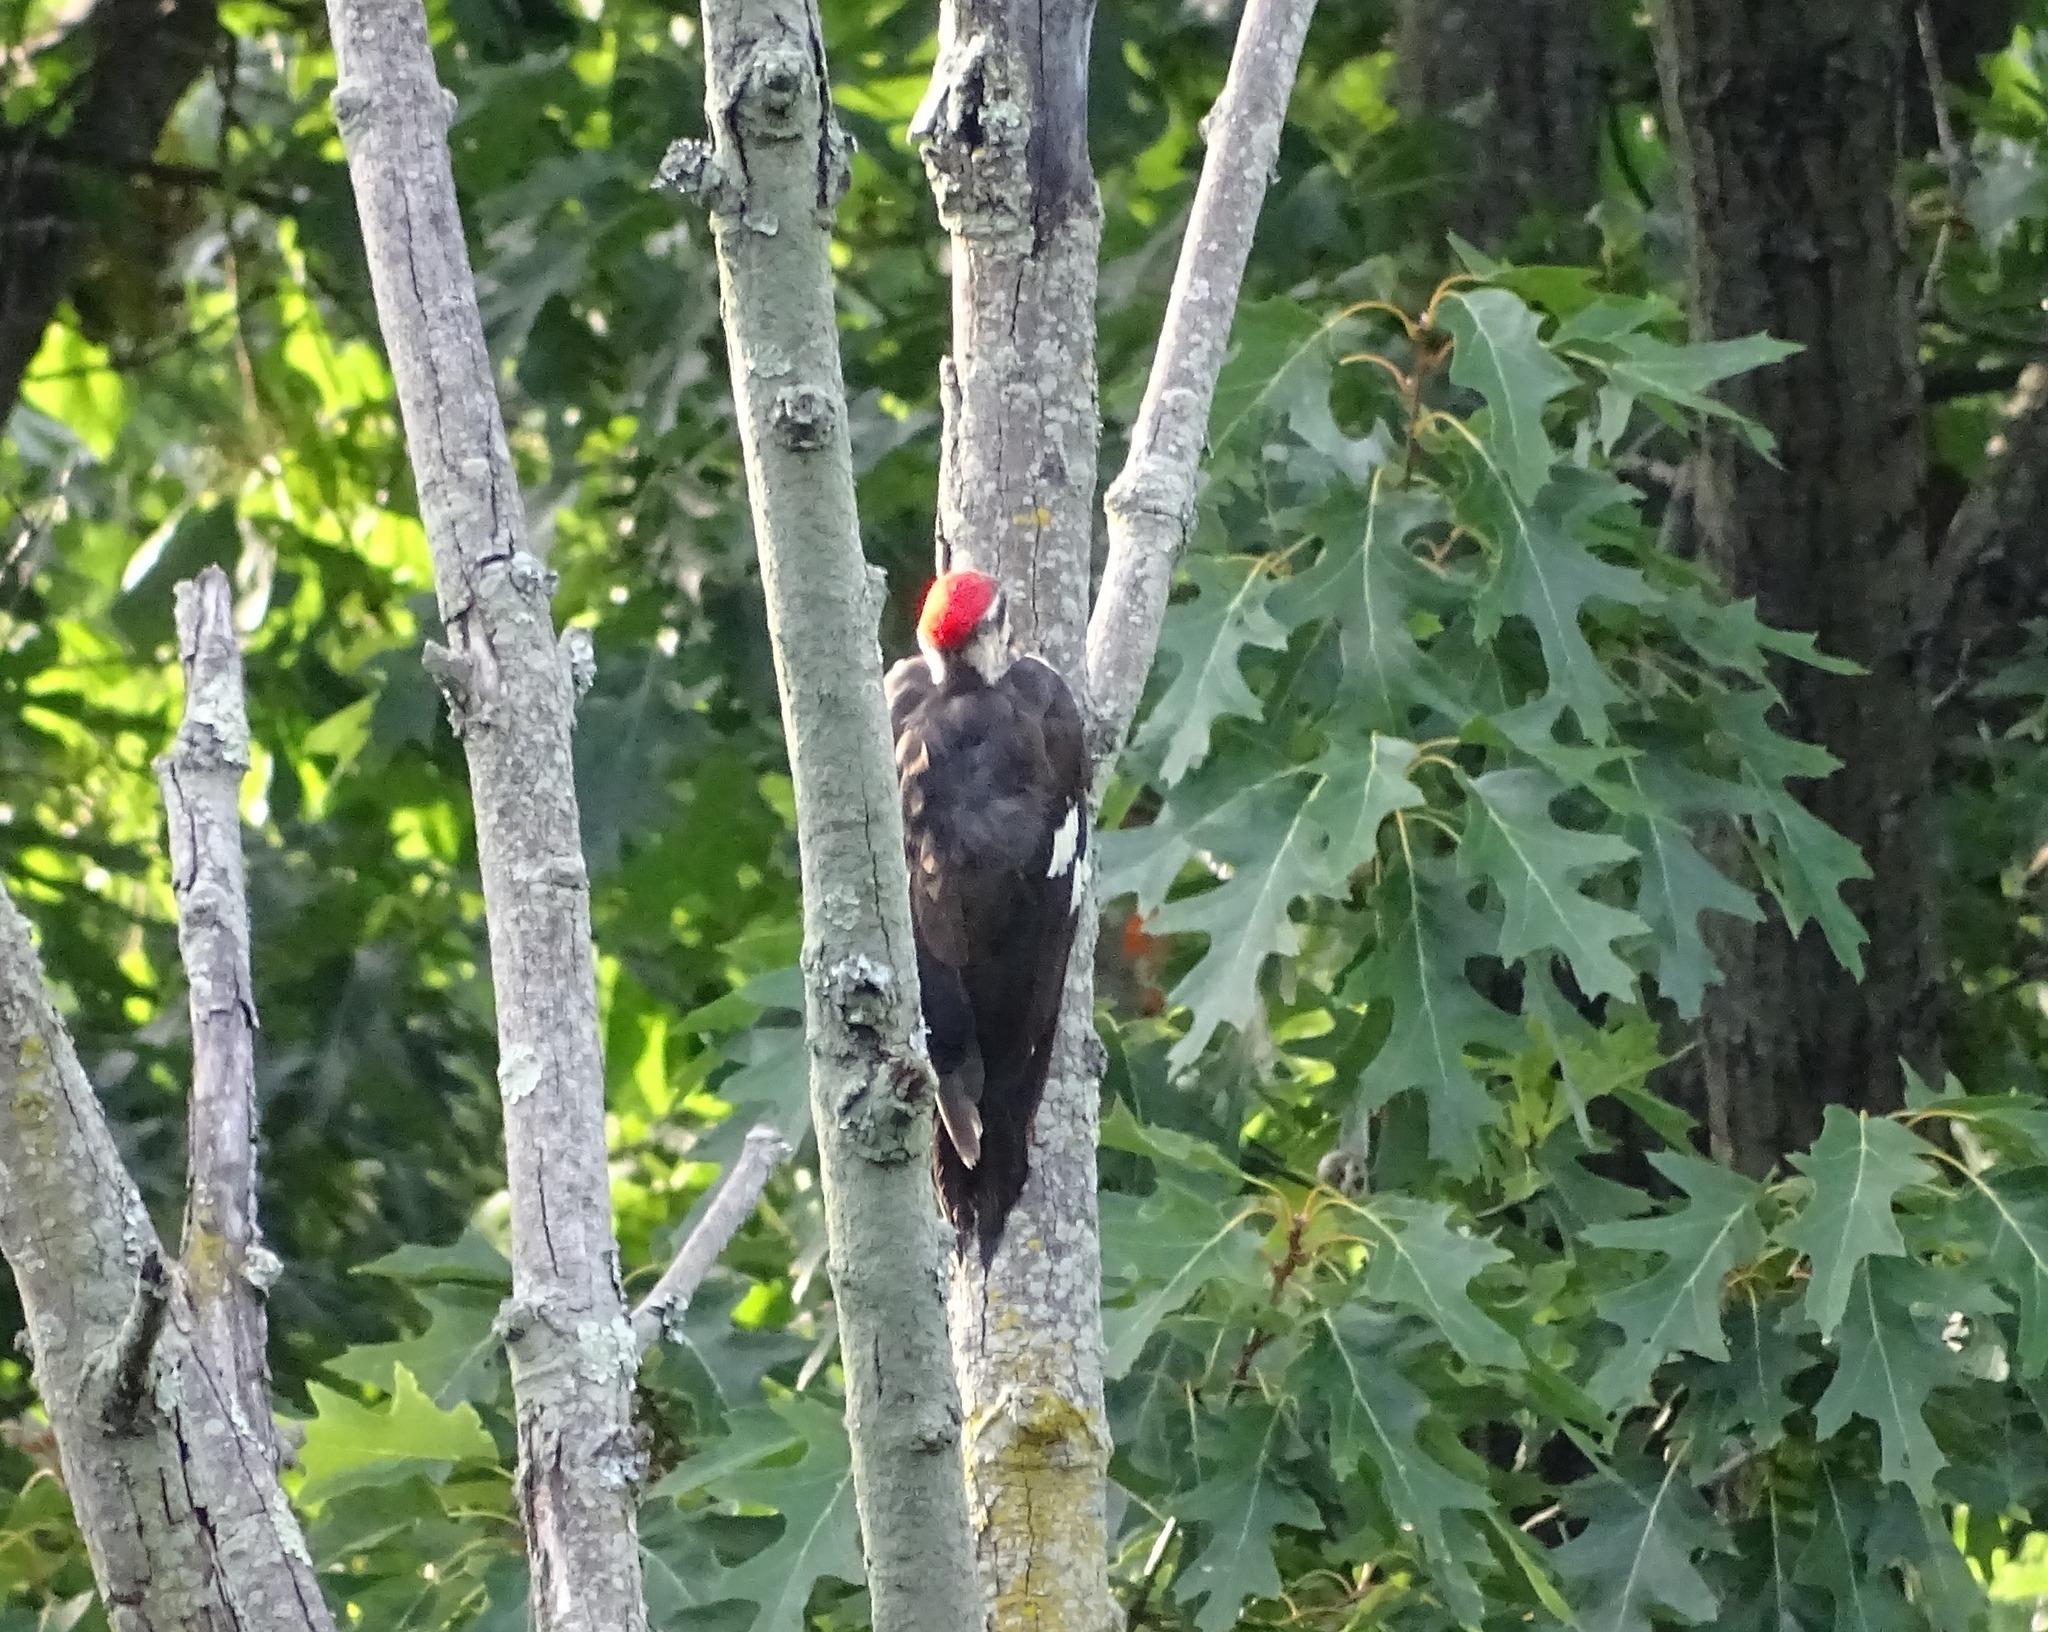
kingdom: Animalia
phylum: Chordata
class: Aves
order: Piciformes
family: Picidae
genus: Dryocopus
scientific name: Dryocopus pileatus
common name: Pileated woodpecker
